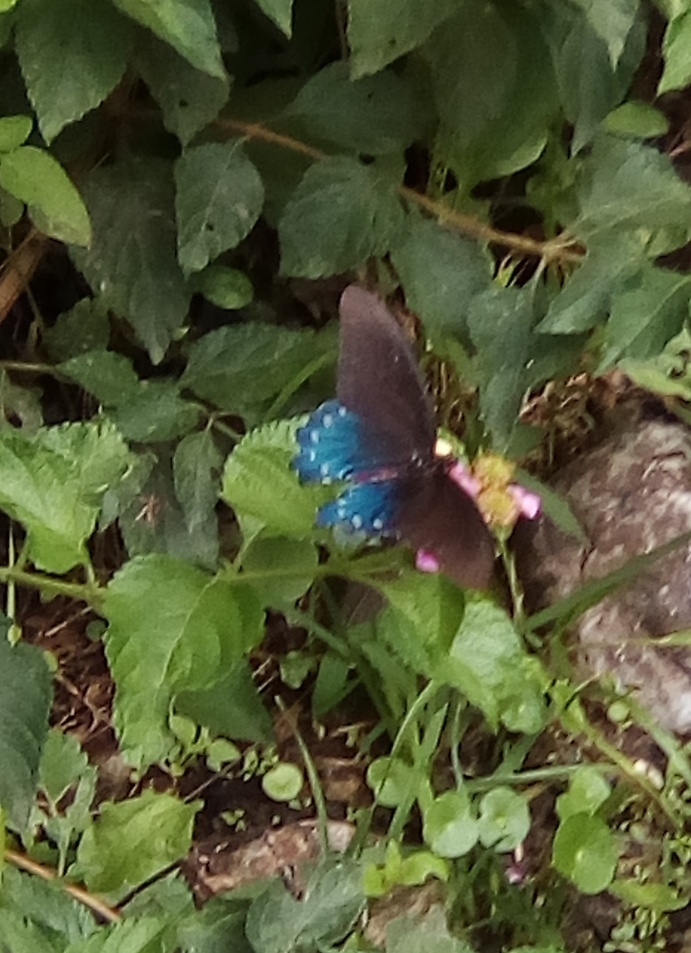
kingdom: Animalia
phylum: Arthropoda
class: Insecta
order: Lepidoptera
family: Papilionidae
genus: Battus
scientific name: Battus philenor
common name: Pipevine swallowtail
